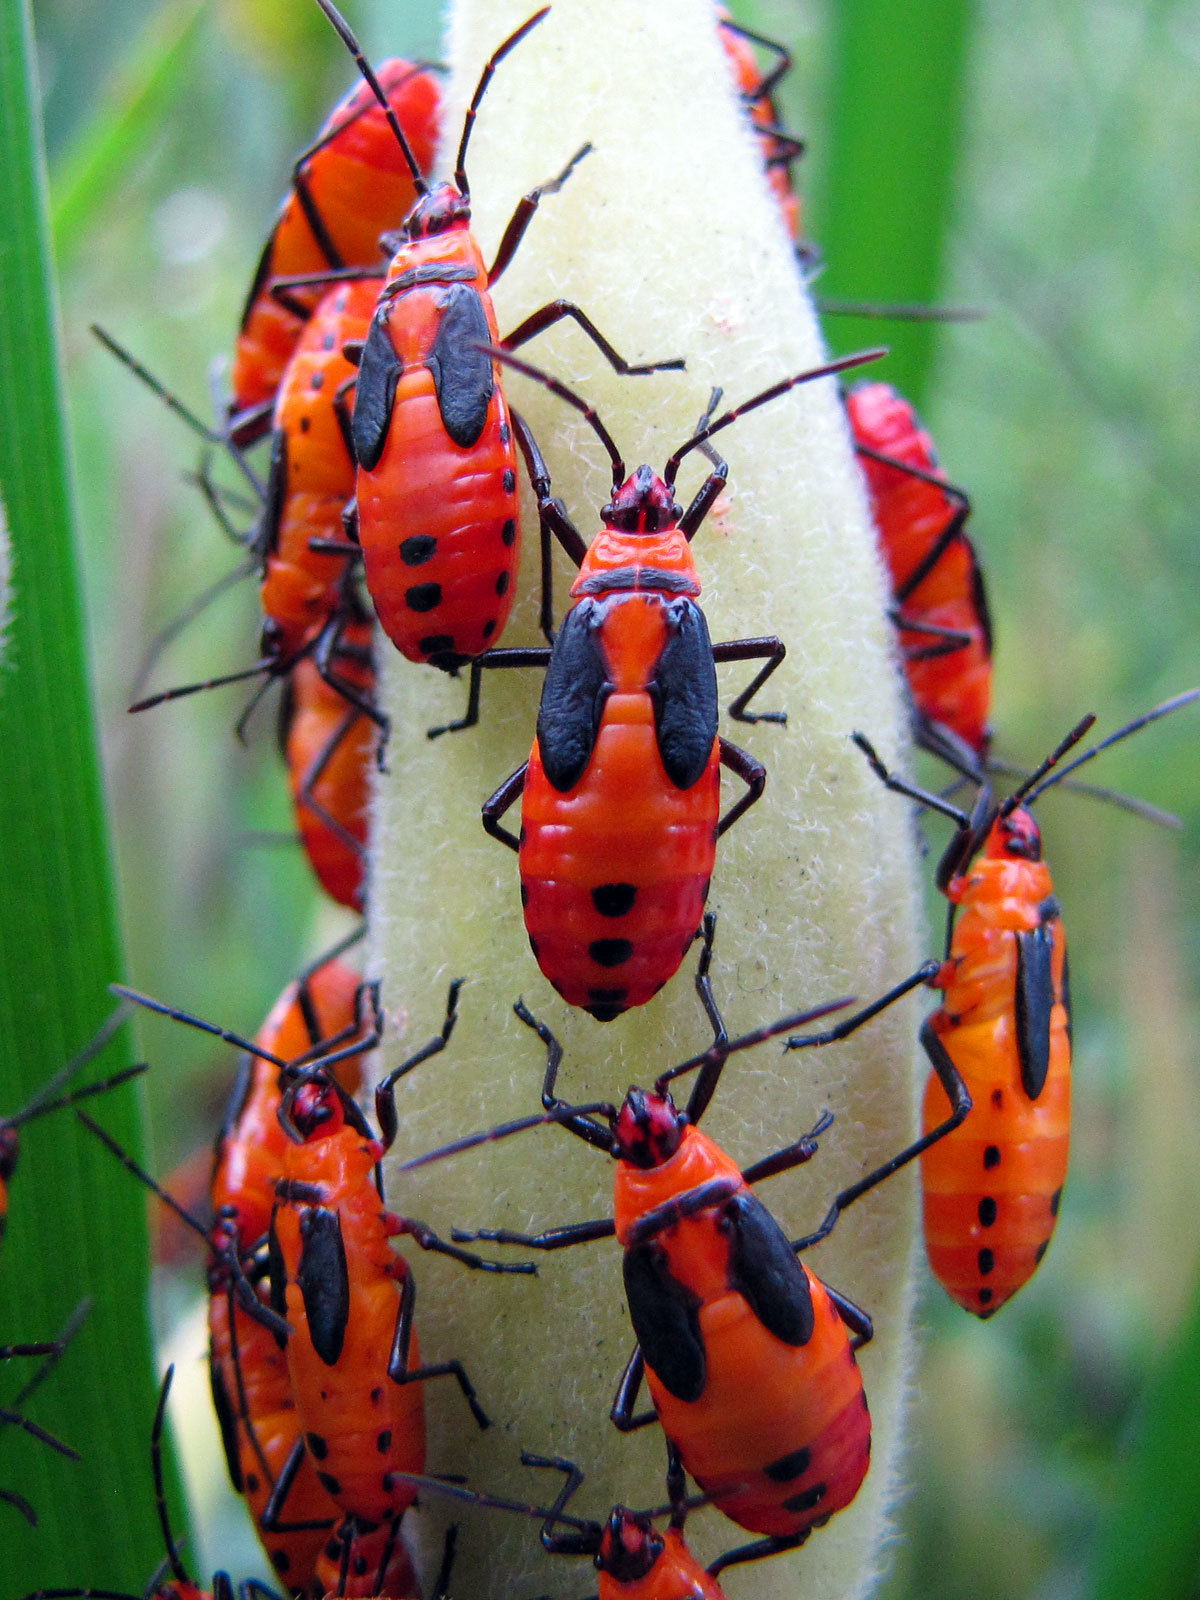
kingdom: Animalia
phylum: Arthropoda
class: Insecta
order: Hemiptera
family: Lygaeidae
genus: Oncopeltus
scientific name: Oncopeltus fasciatus
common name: Large milkweed bug
